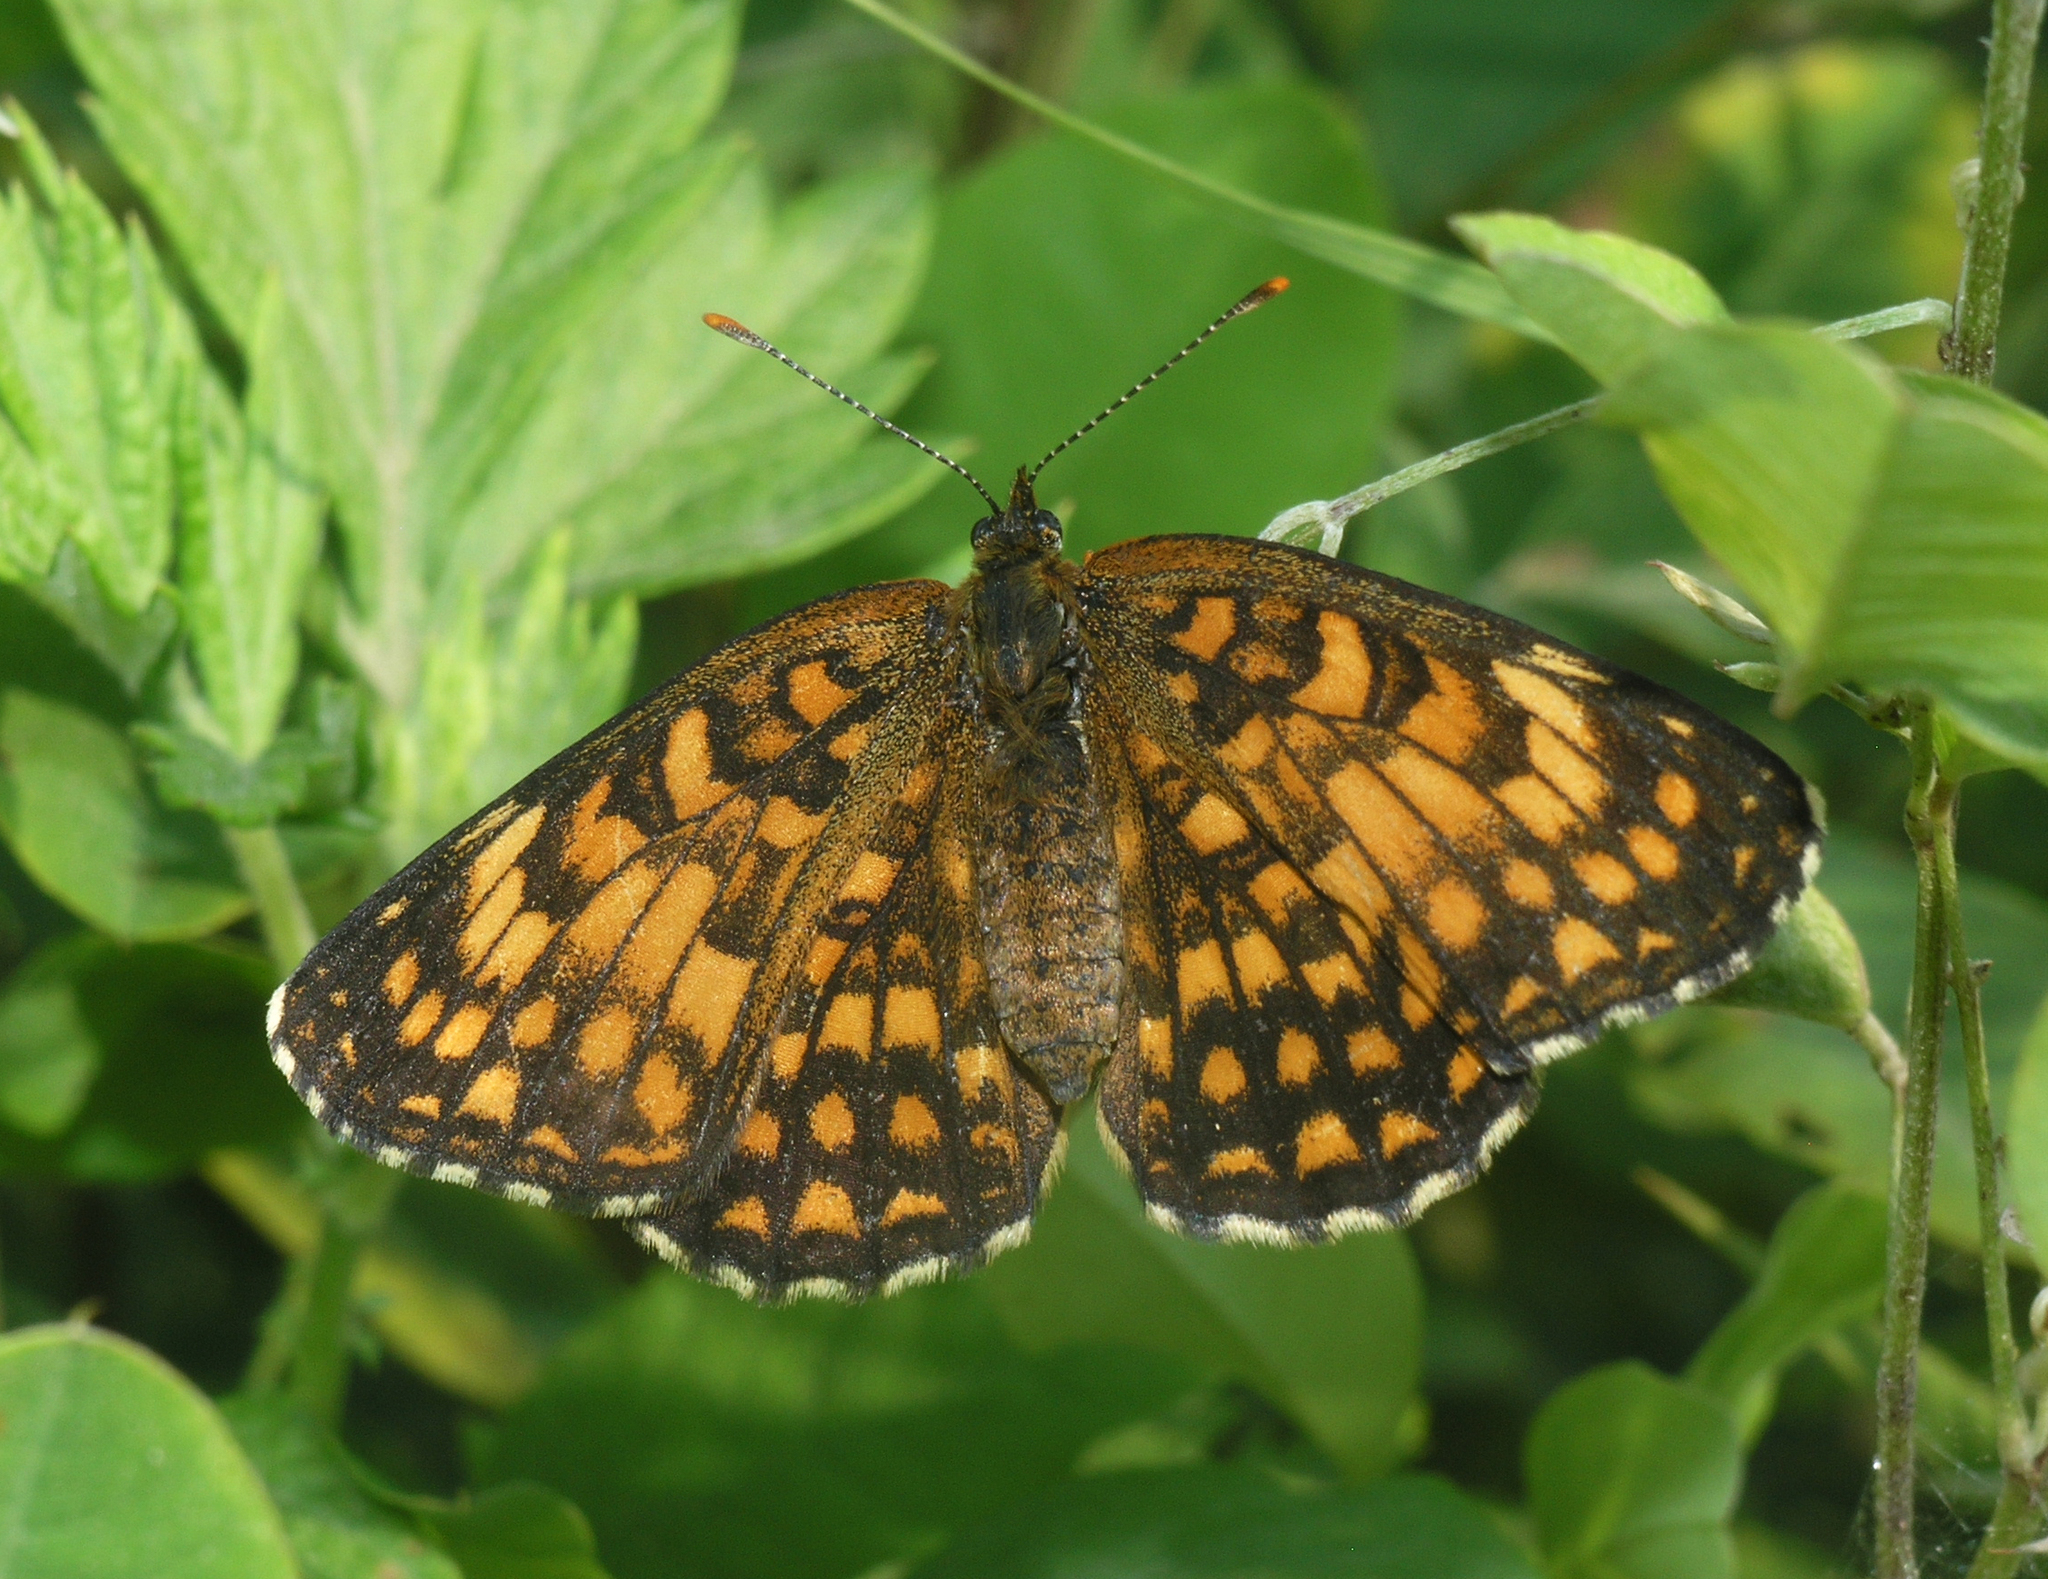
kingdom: Animalia
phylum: Arthropoda
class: Insecta
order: Lepidoptera
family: Nymphalidae
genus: Melitaea
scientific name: Melitaea diamina
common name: False heath fritillary
